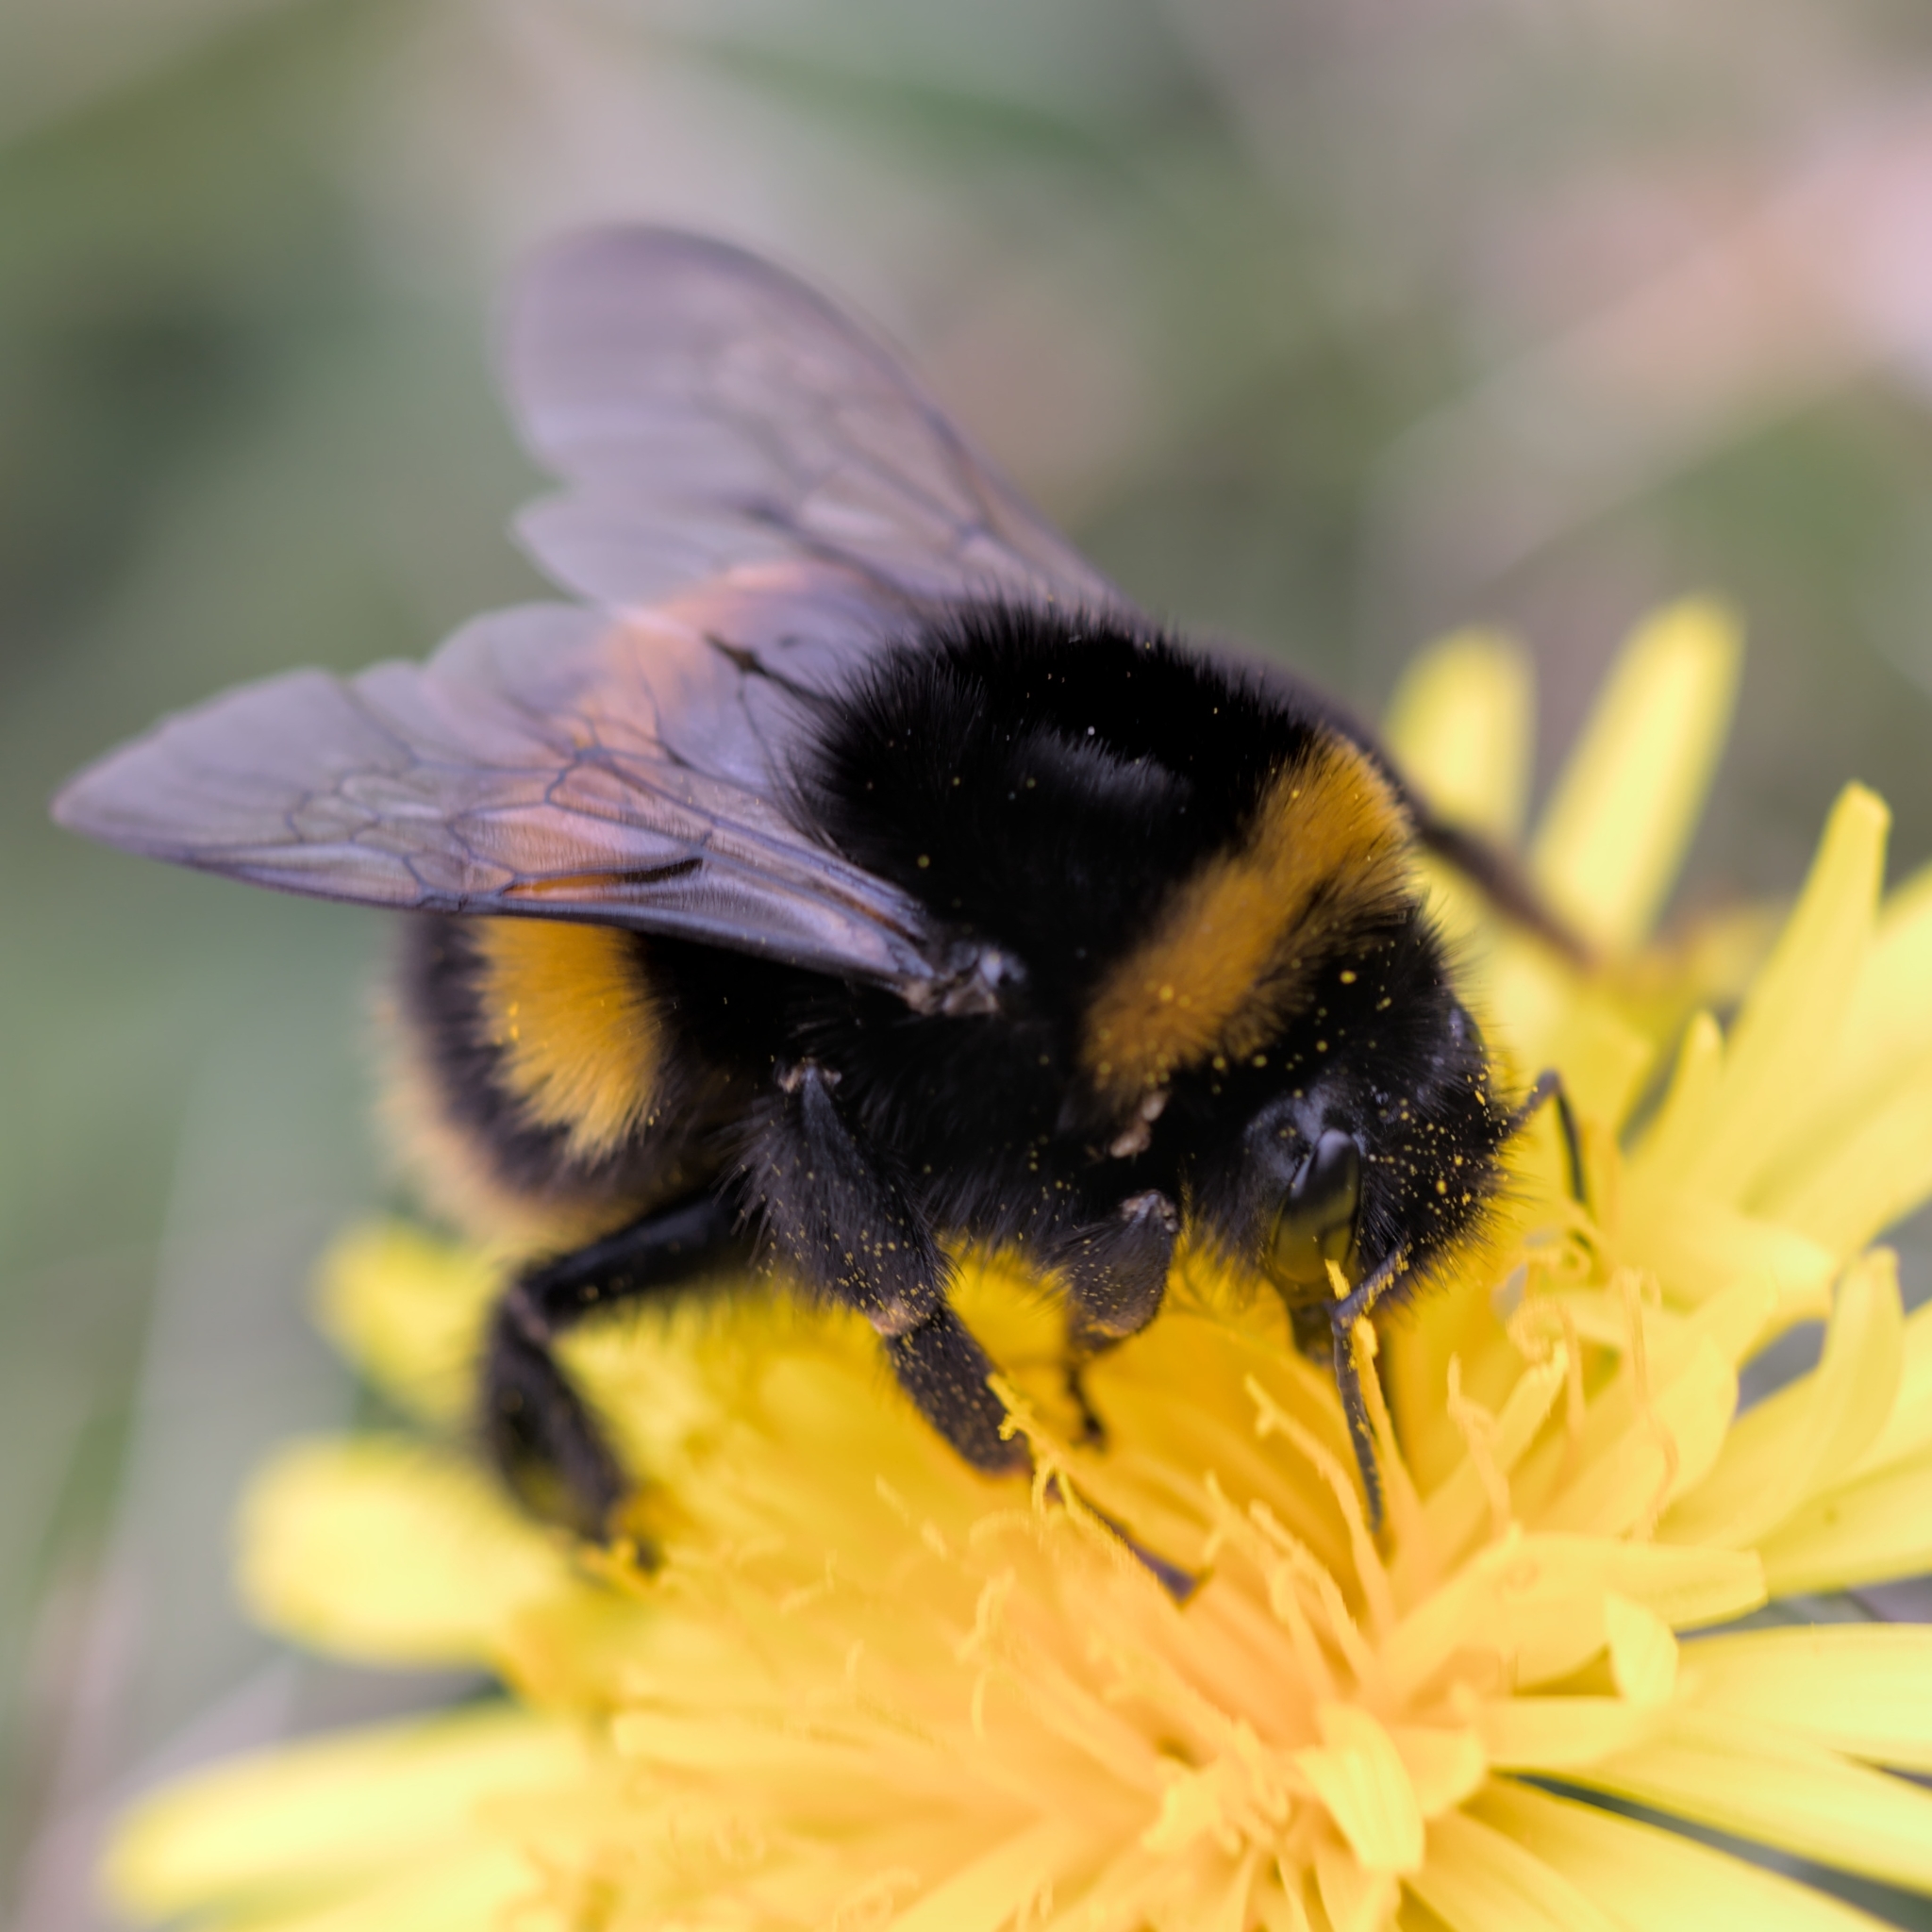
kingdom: Animalia
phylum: Arthropoda
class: Insecta
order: Hymenoptera
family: Apidae
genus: Bombus
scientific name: Bombus terrestris
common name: Buff-tailed bumblebee
